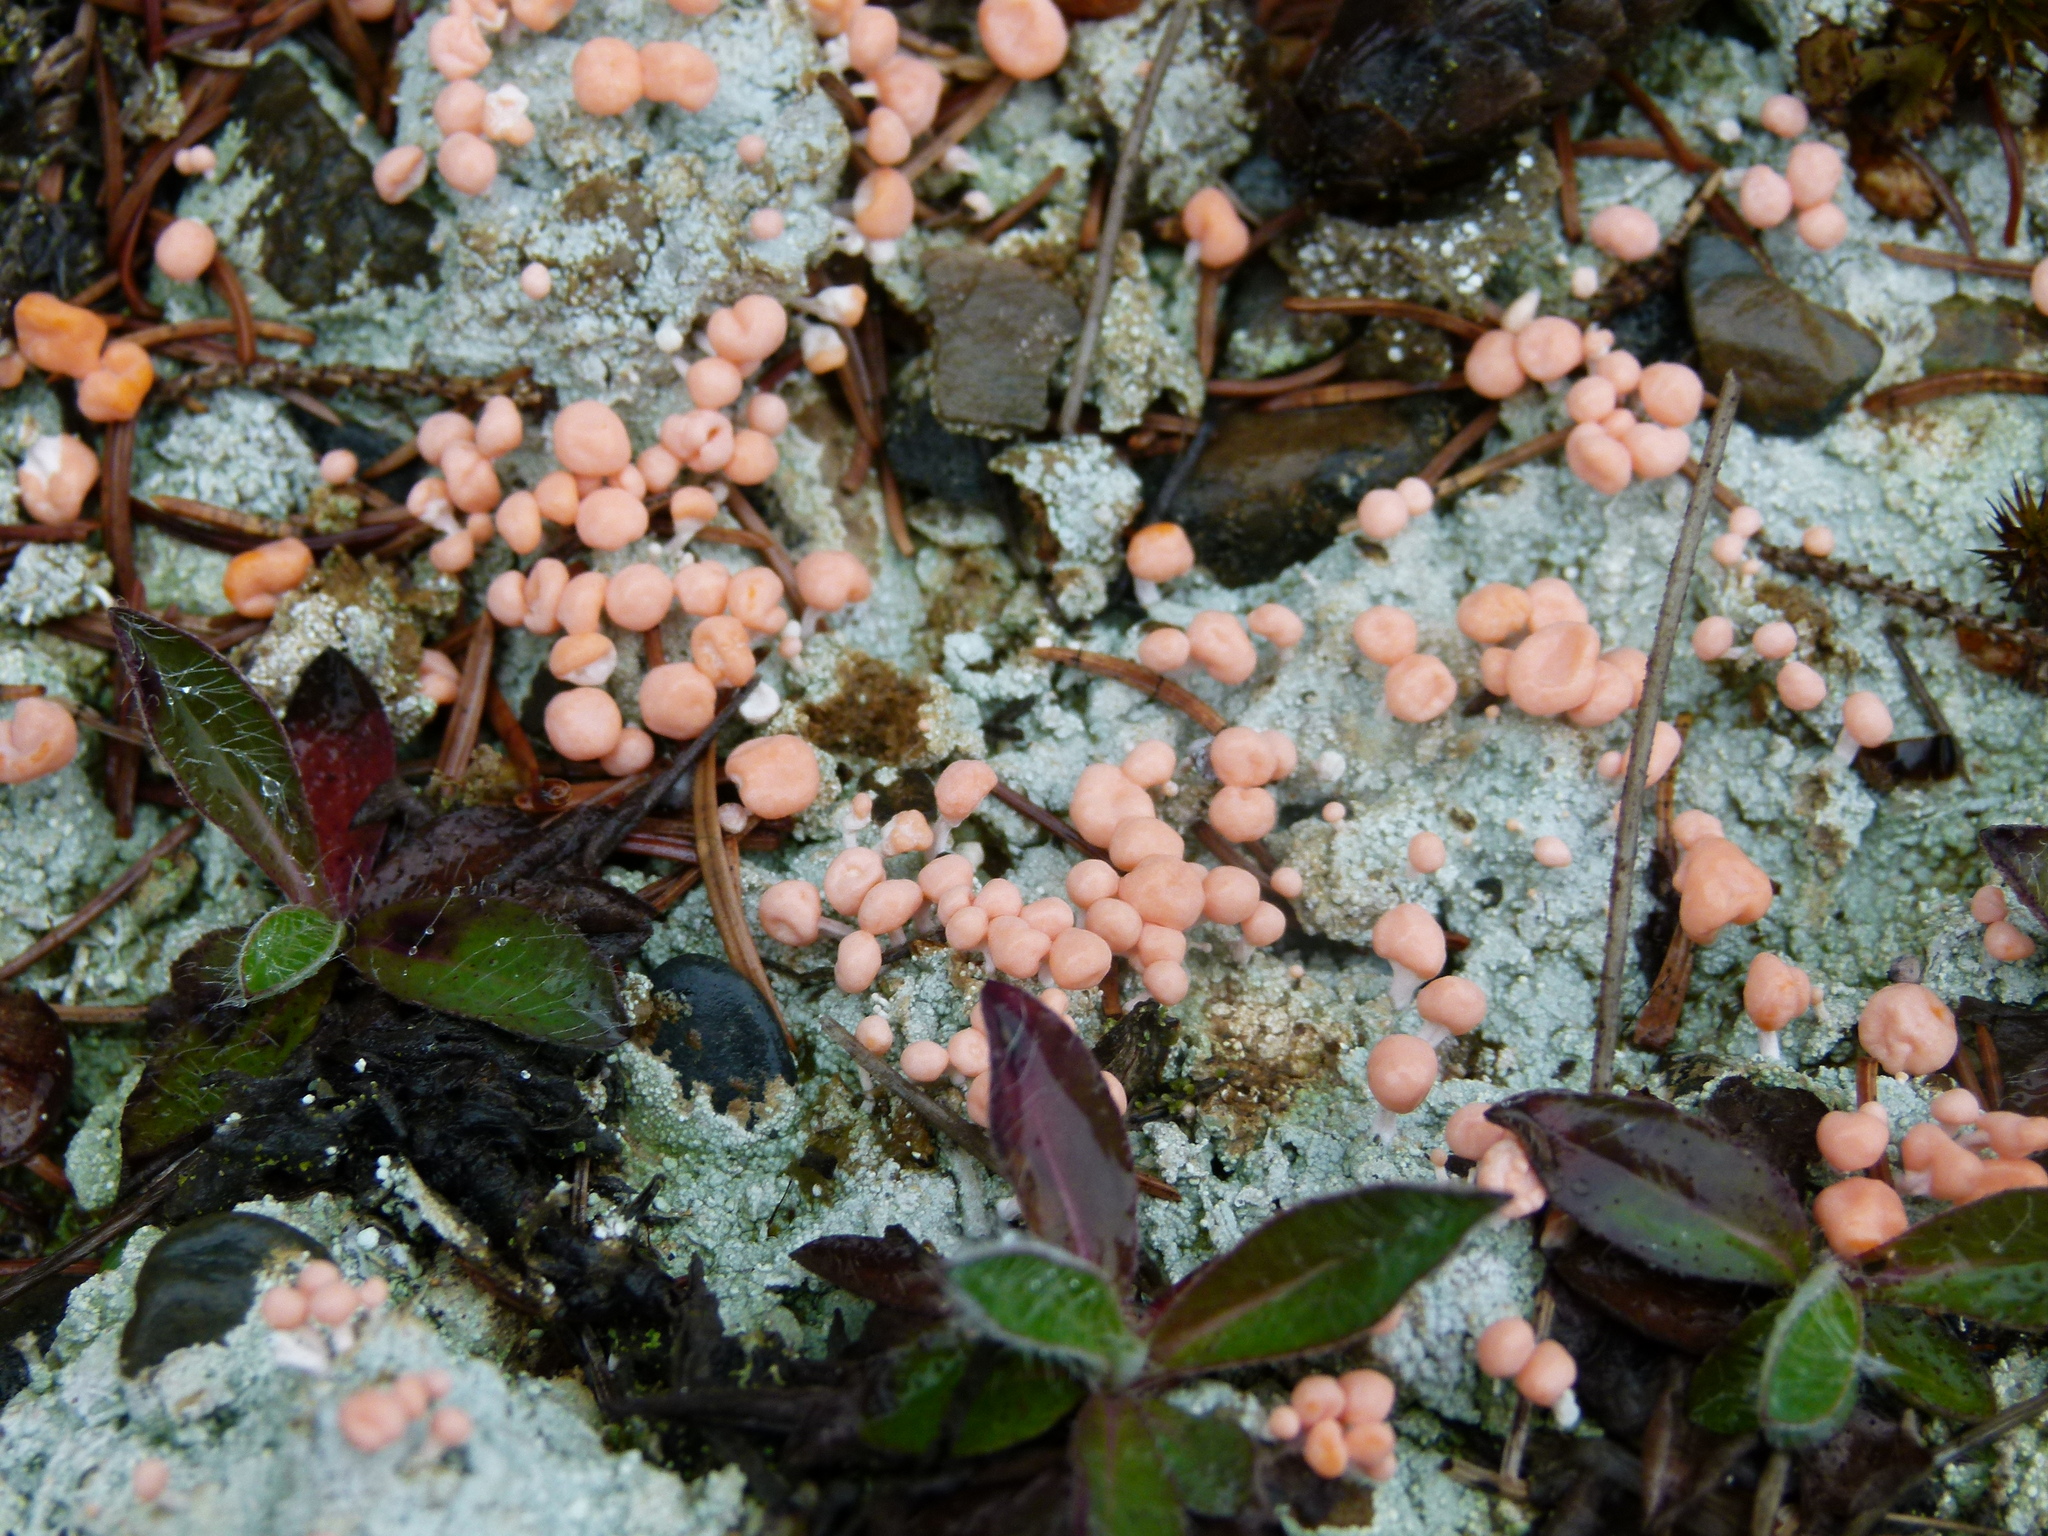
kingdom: Fungi
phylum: Ascomycota
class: Lecanoromycetes
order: Pertusariales
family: Icmadophilaceae
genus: Dibaeis
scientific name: Dibaeis baeomyces
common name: Pink earth lichen
